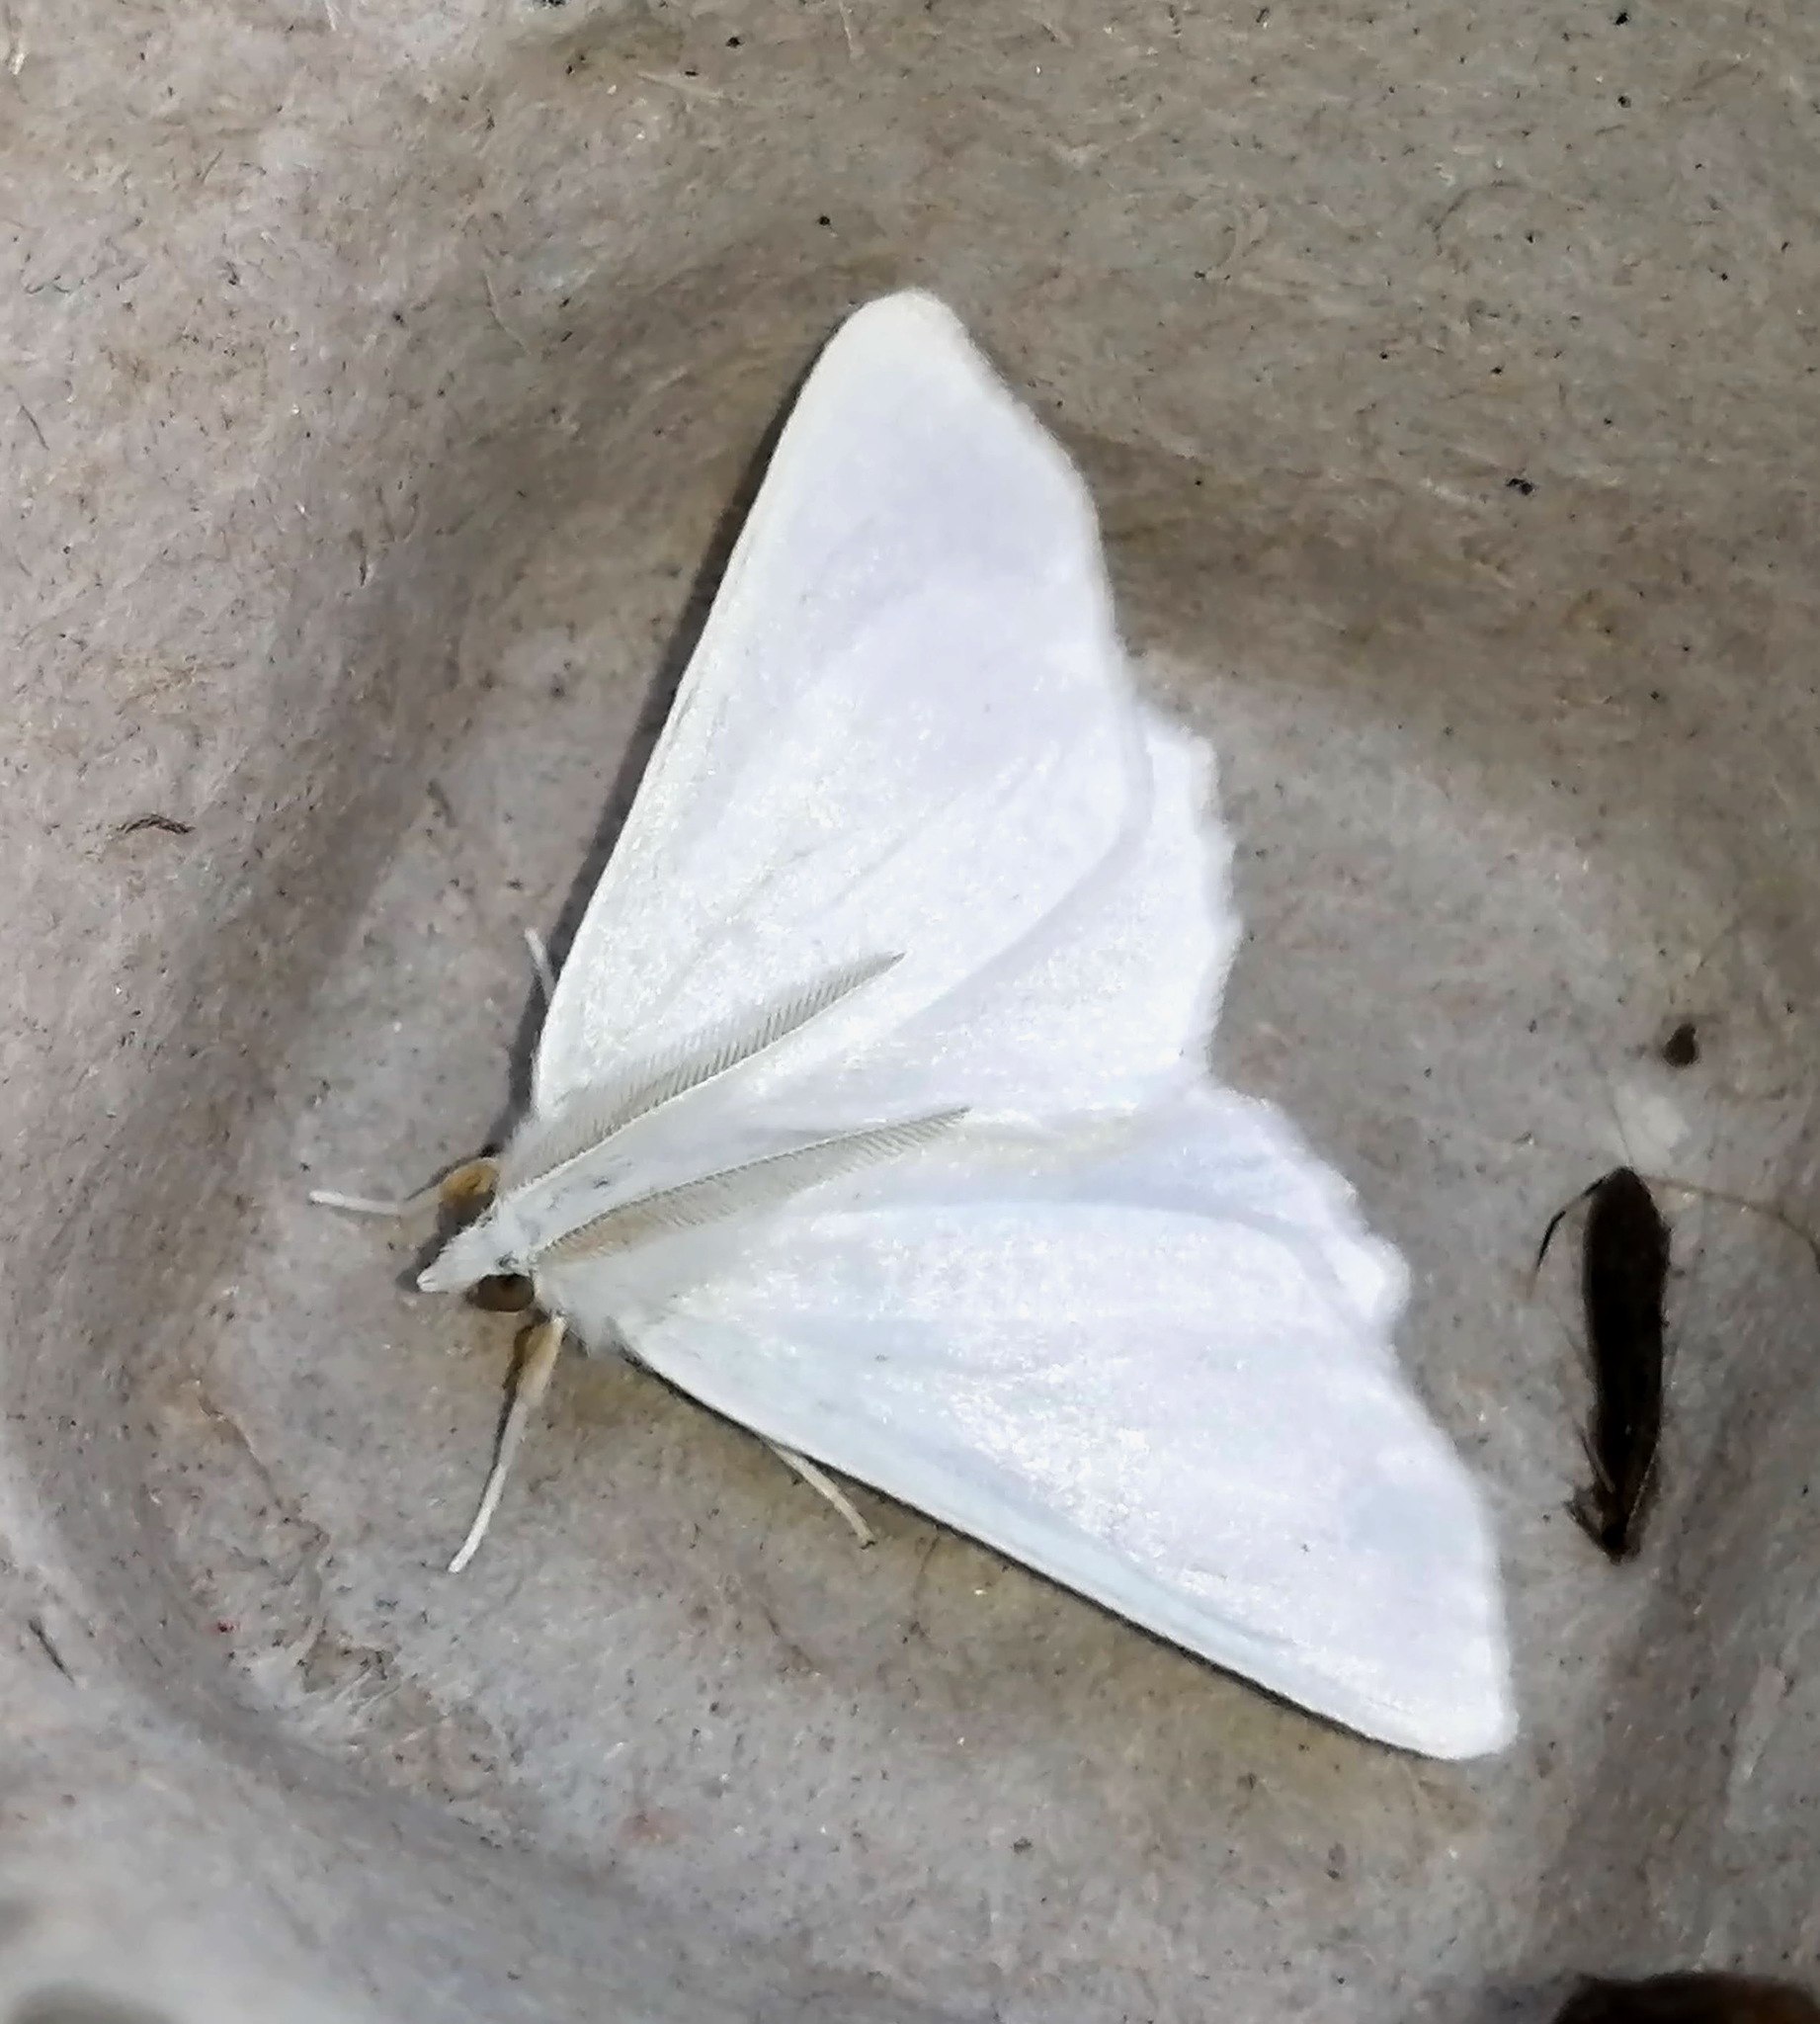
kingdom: Animalia
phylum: Arthropoda
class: Insecta
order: Lepidoptera
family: Geometridae
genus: Ennomos
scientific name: Ennomos subsignaria
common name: Elm spanworm
